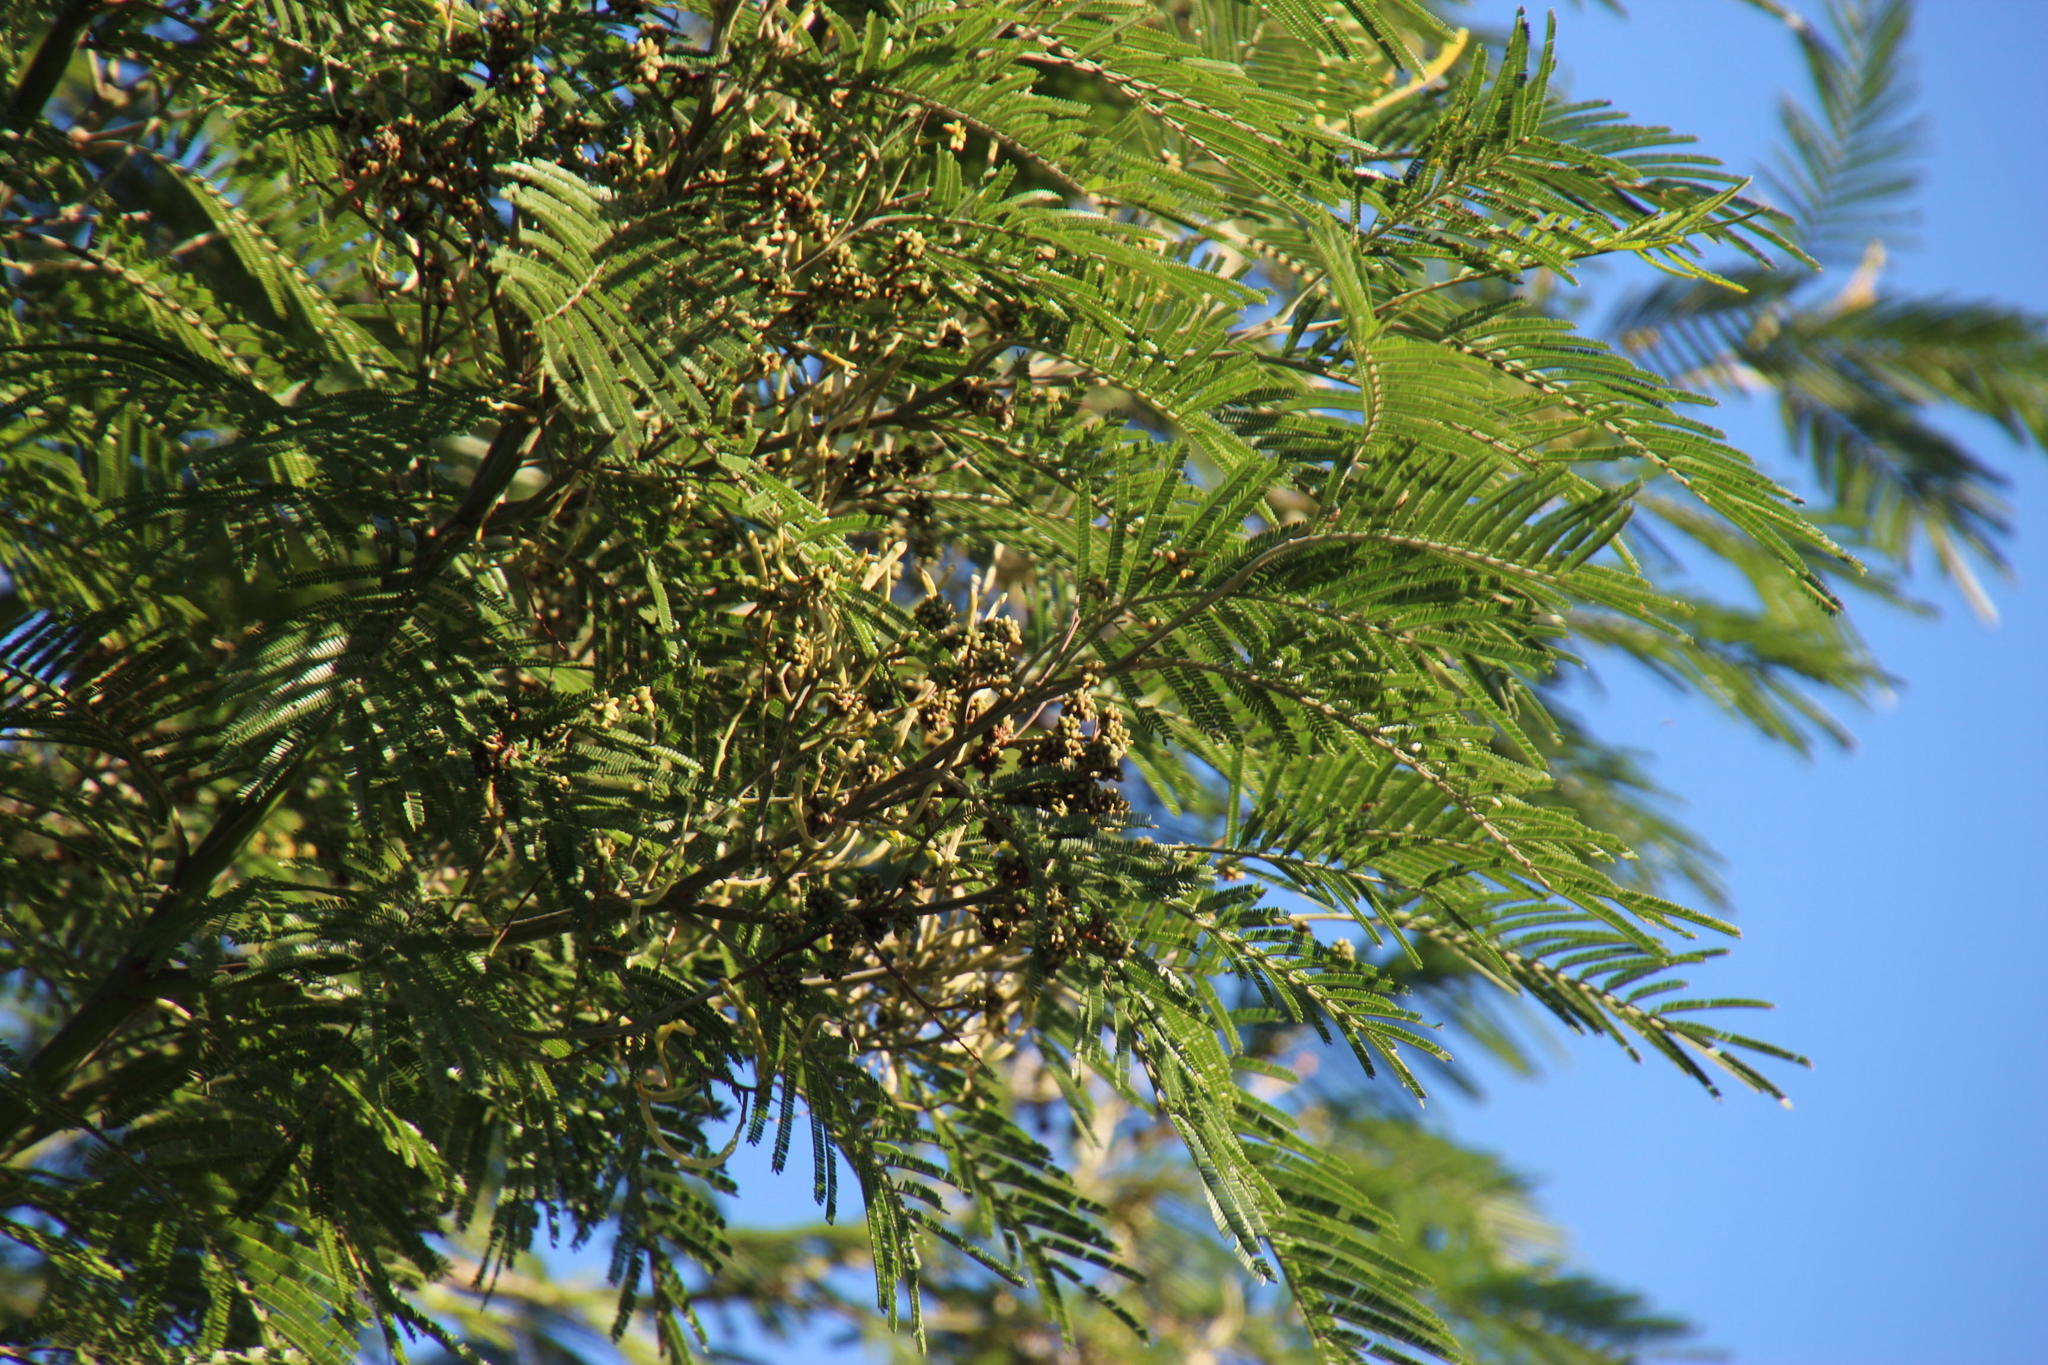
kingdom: Animalia
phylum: Arthropoda
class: Insecta
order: Diptera
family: Cecidomyiidae
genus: Dasineura
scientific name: Dasineura rubiformis
